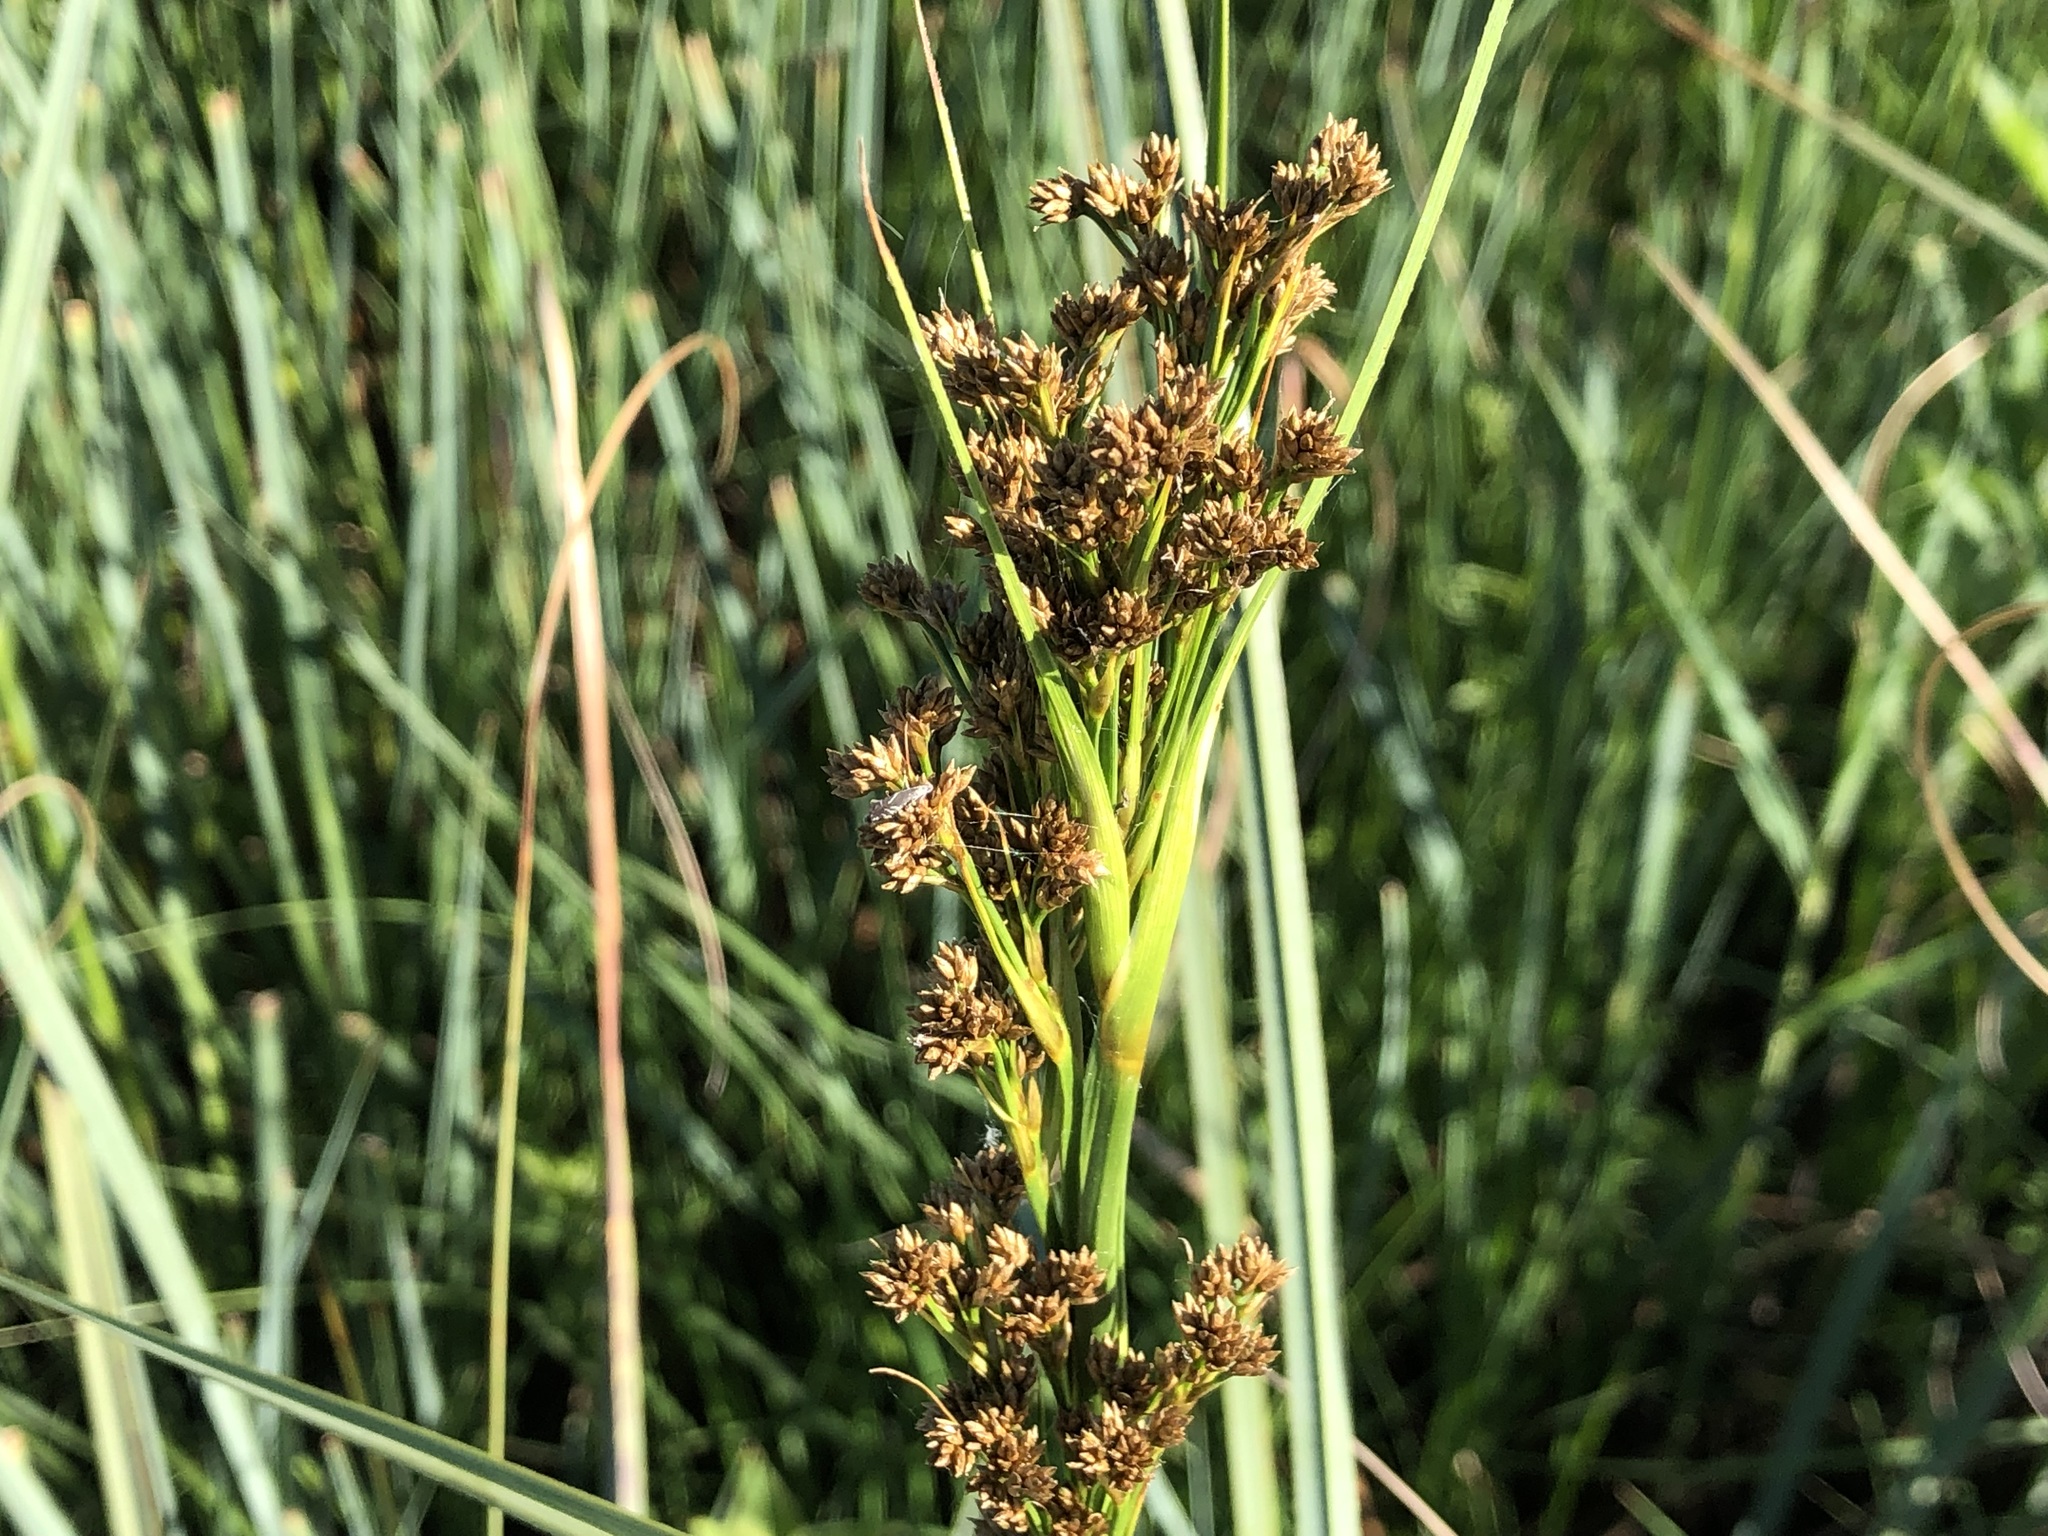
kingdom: Plantae
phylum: Tracheophyta
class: Liliopsida
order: Poales
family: Cyperaceae
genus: Cladium
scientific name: Cladium mariscus
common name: Great fen-sedge
